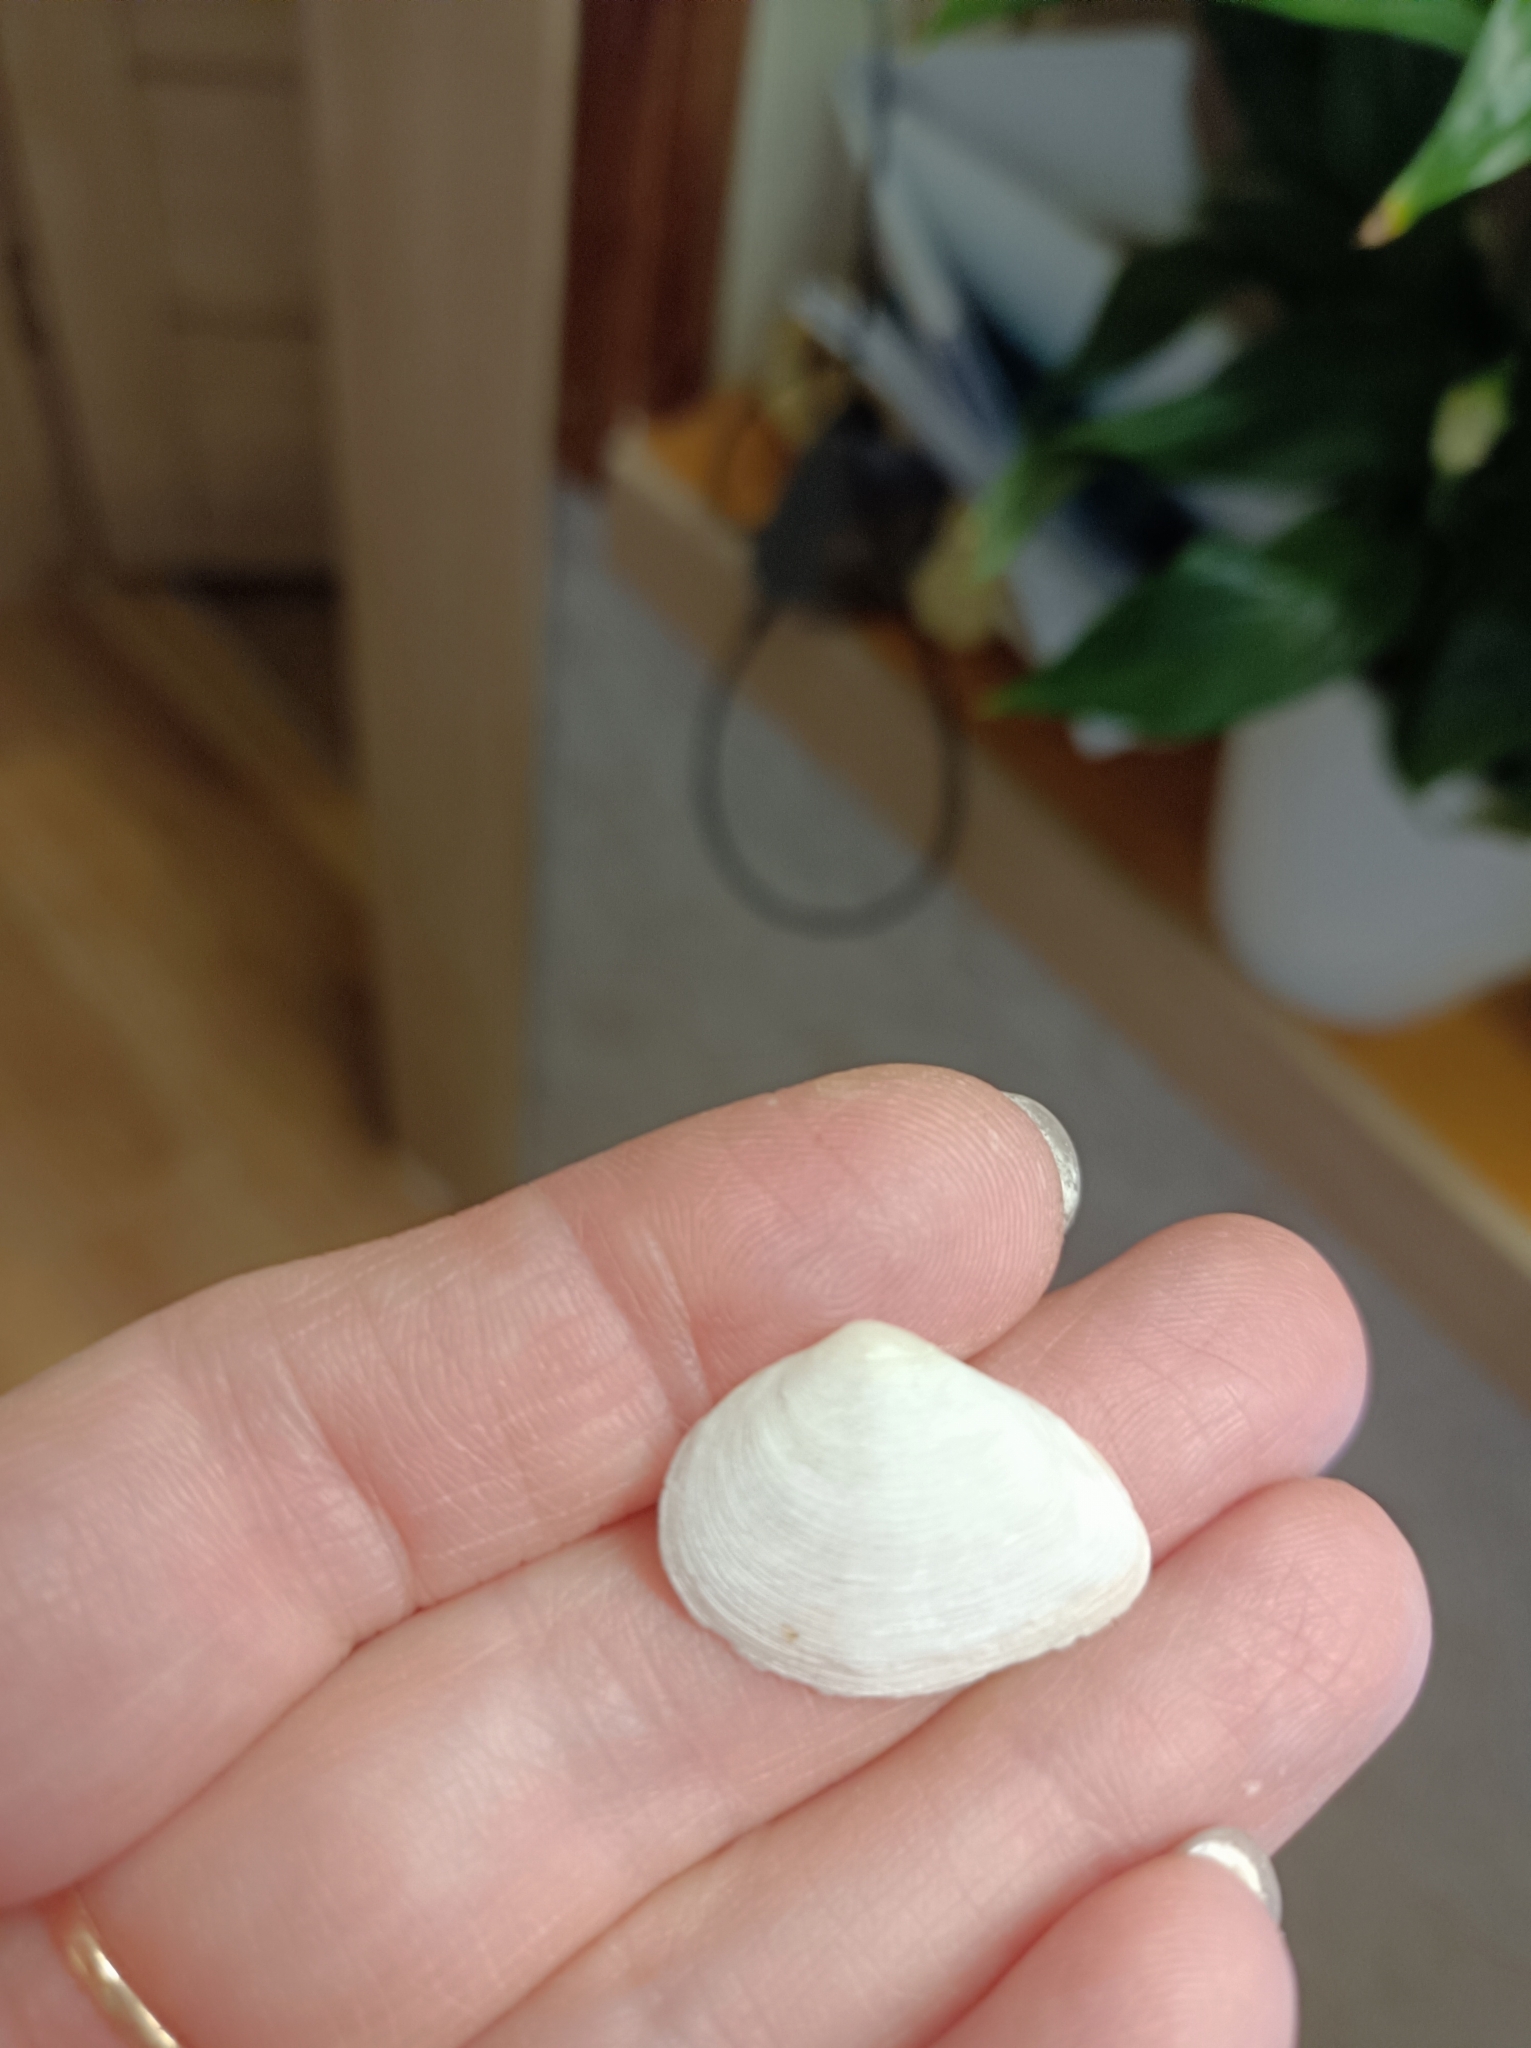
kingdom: Animalia
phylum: Mollusca
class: Bivalvia
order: Cardiida
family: Tellinidae
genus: Gastrana
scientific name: Gastrana fragilis
